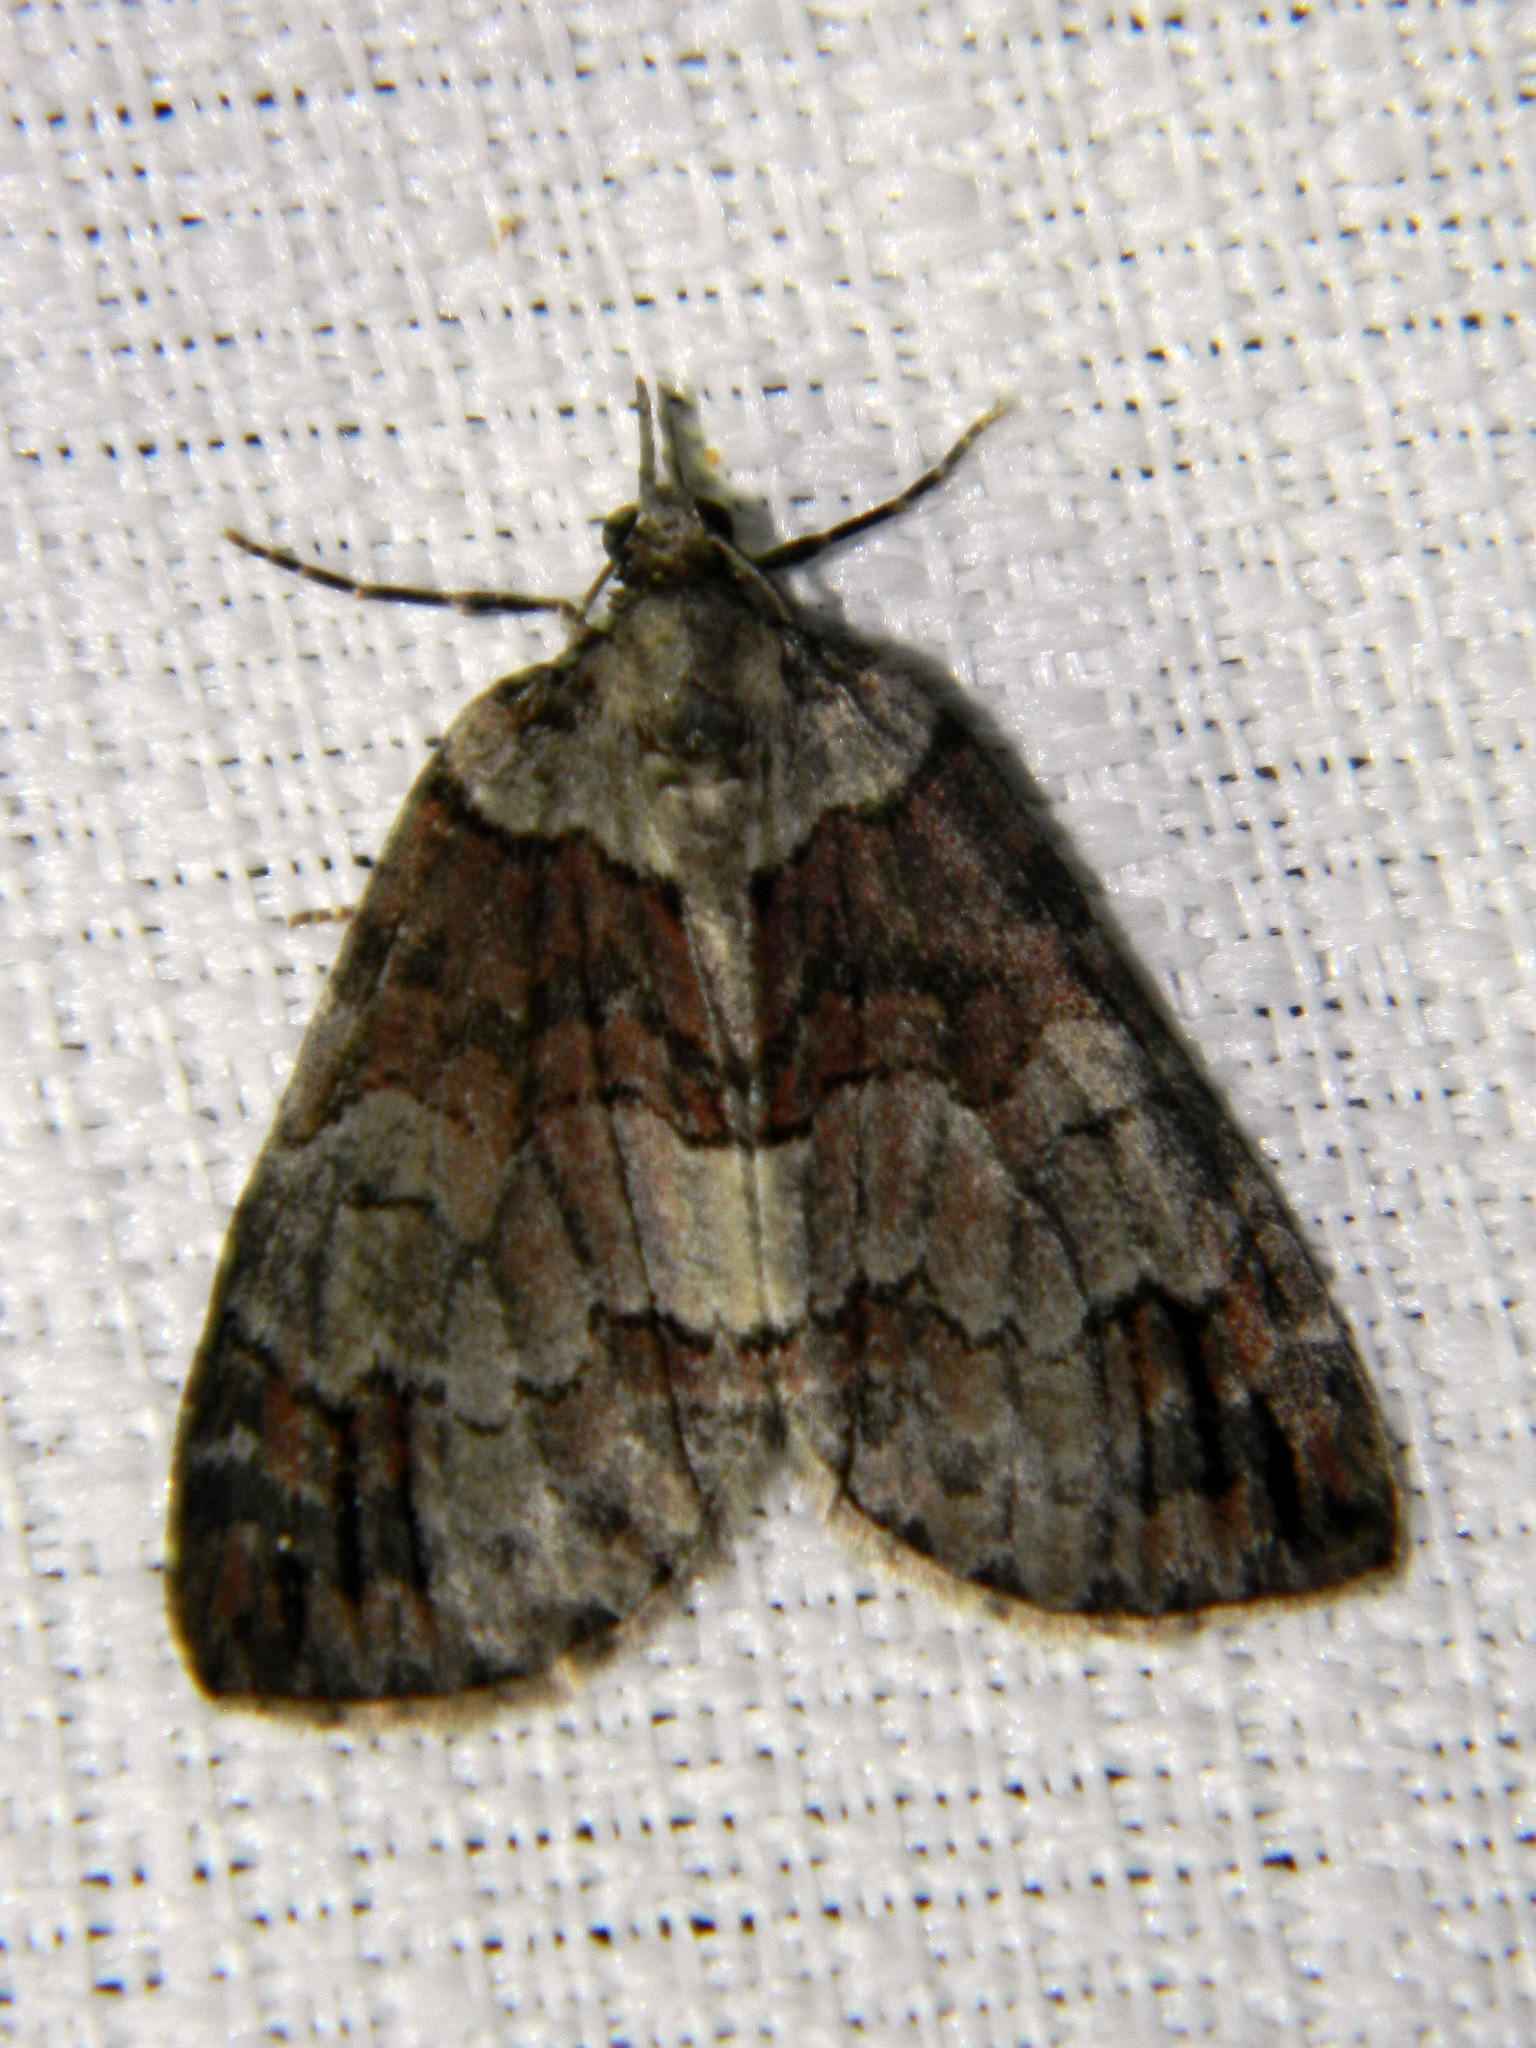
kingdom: Animalia
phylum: Arthropoda
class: Insecta
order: Lepidoptera
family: Geometridae
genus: Hydriomena
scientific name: Hydriomena ruberata
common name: Ruddy highflyer
